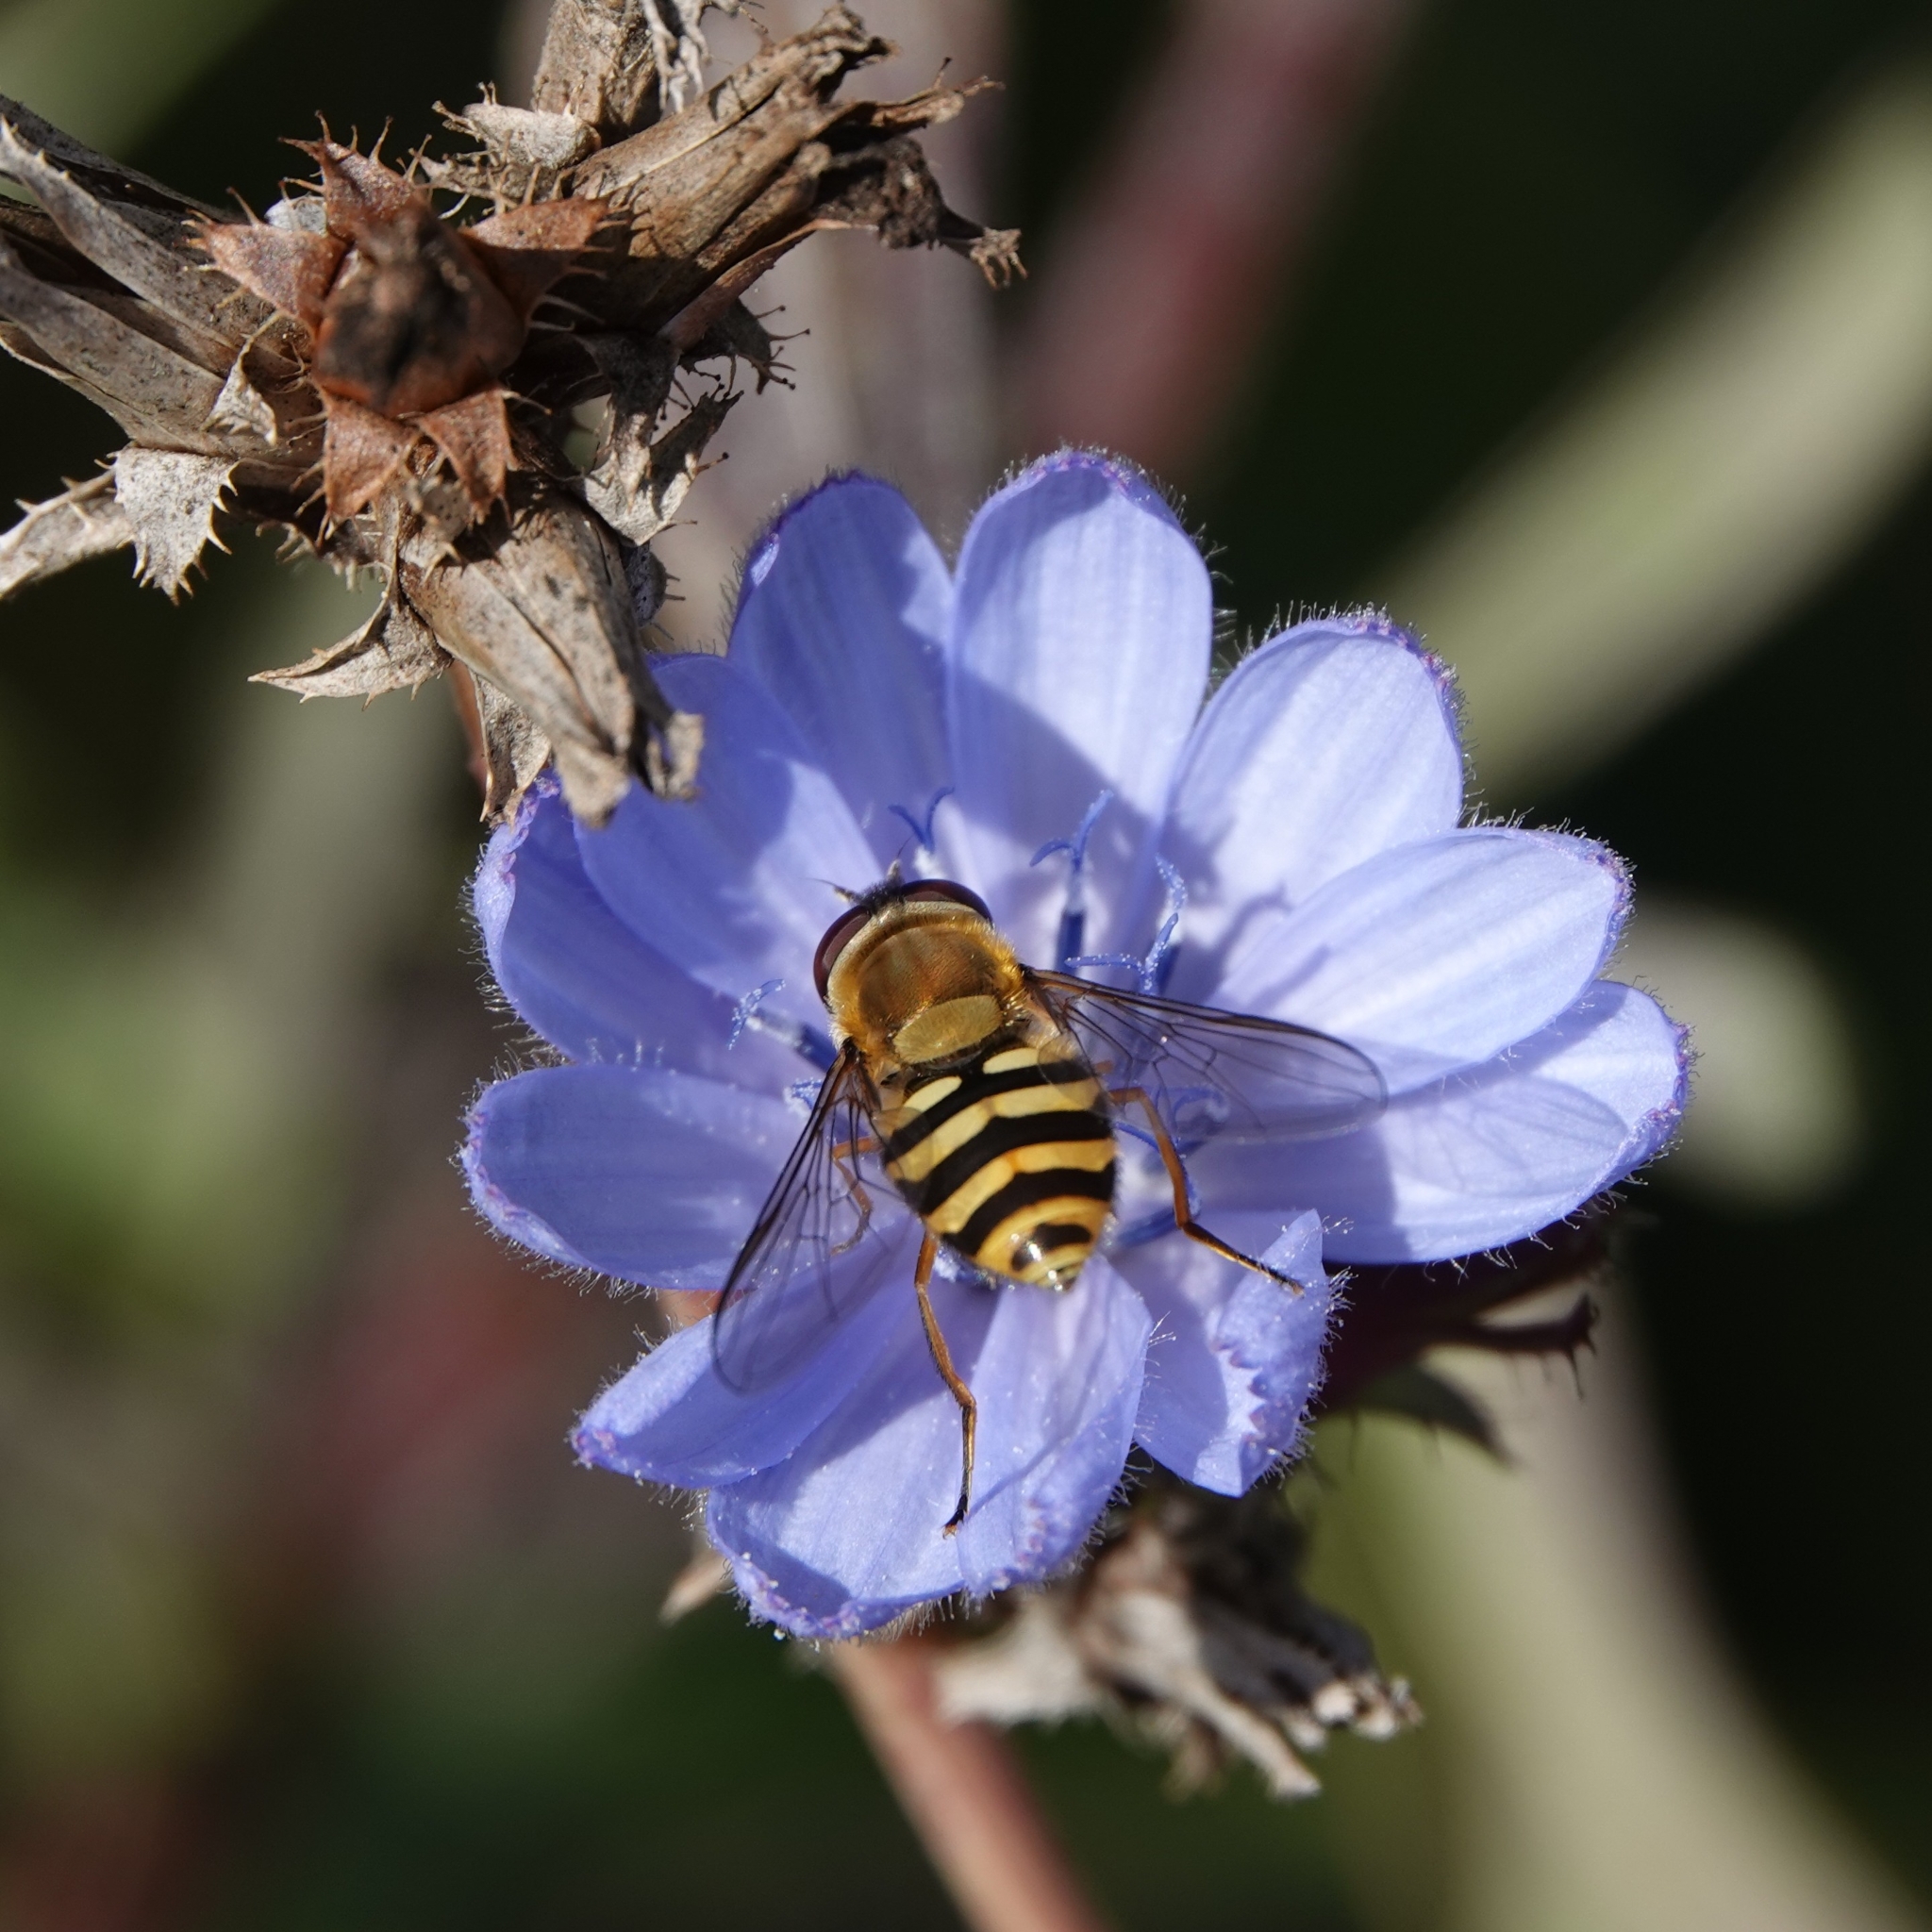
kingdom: Animalia
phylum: Arthropoda
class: Insecta
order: Diptera
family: Syrphidae
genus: Syrphus
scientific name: Syrphus
